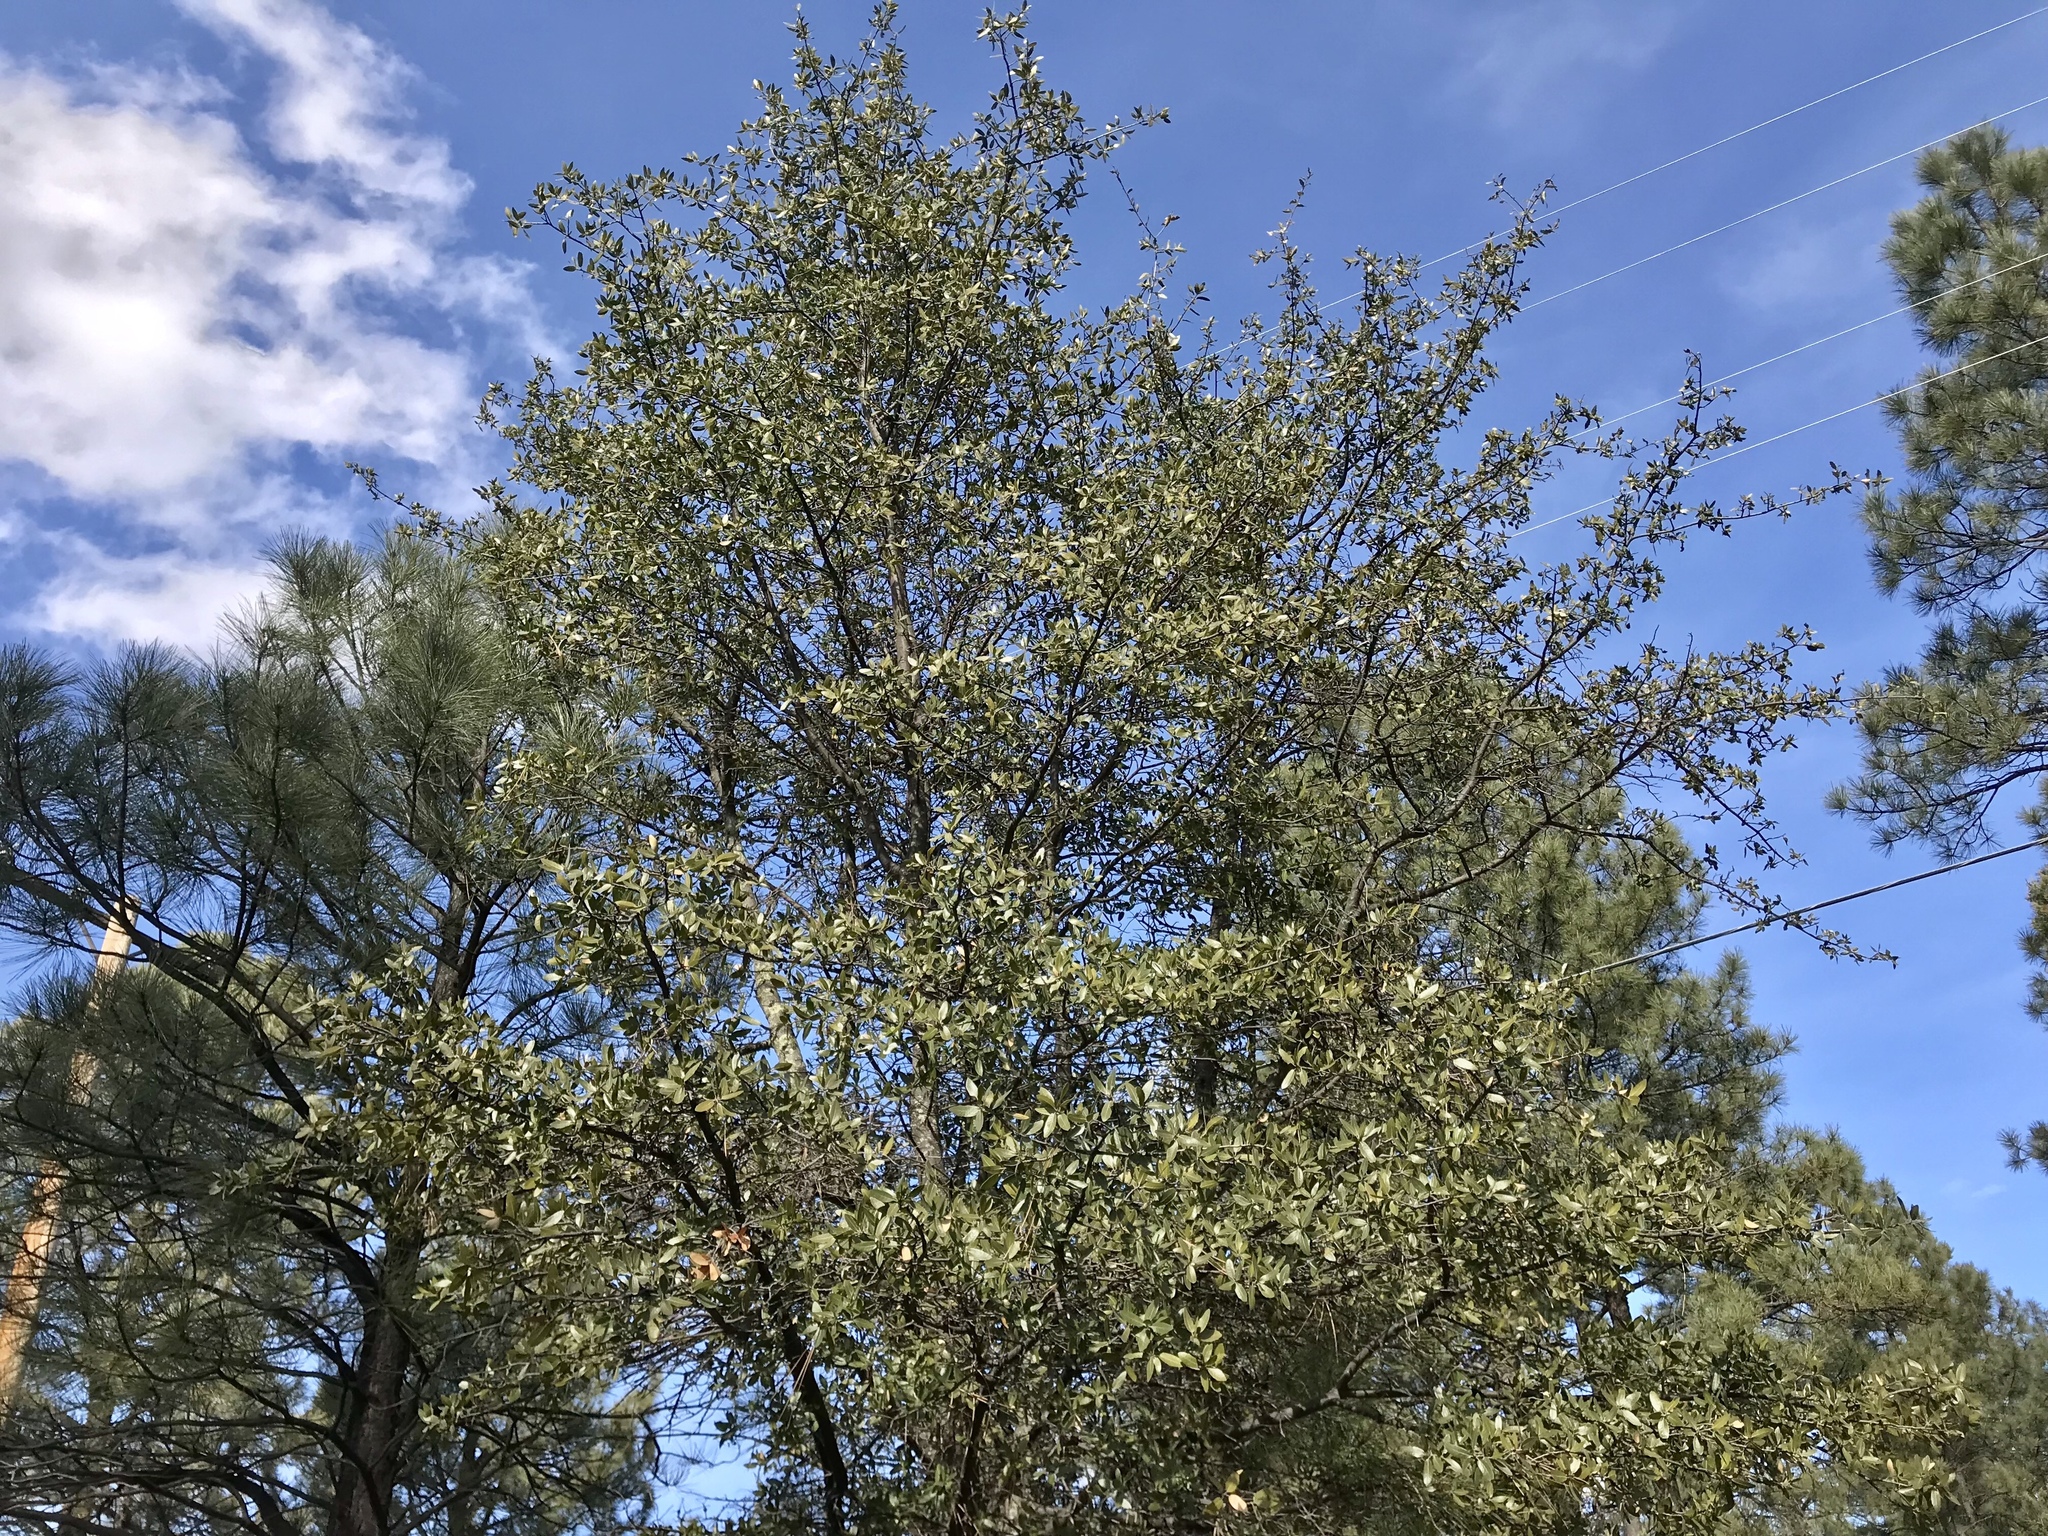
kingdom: Plantae
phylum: Tracheophyta
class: Magnoliopsida
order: Fagales
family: Fagaceae
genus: Quercus
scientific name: Quercus hypoleucoides
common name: Silverleaf oak
